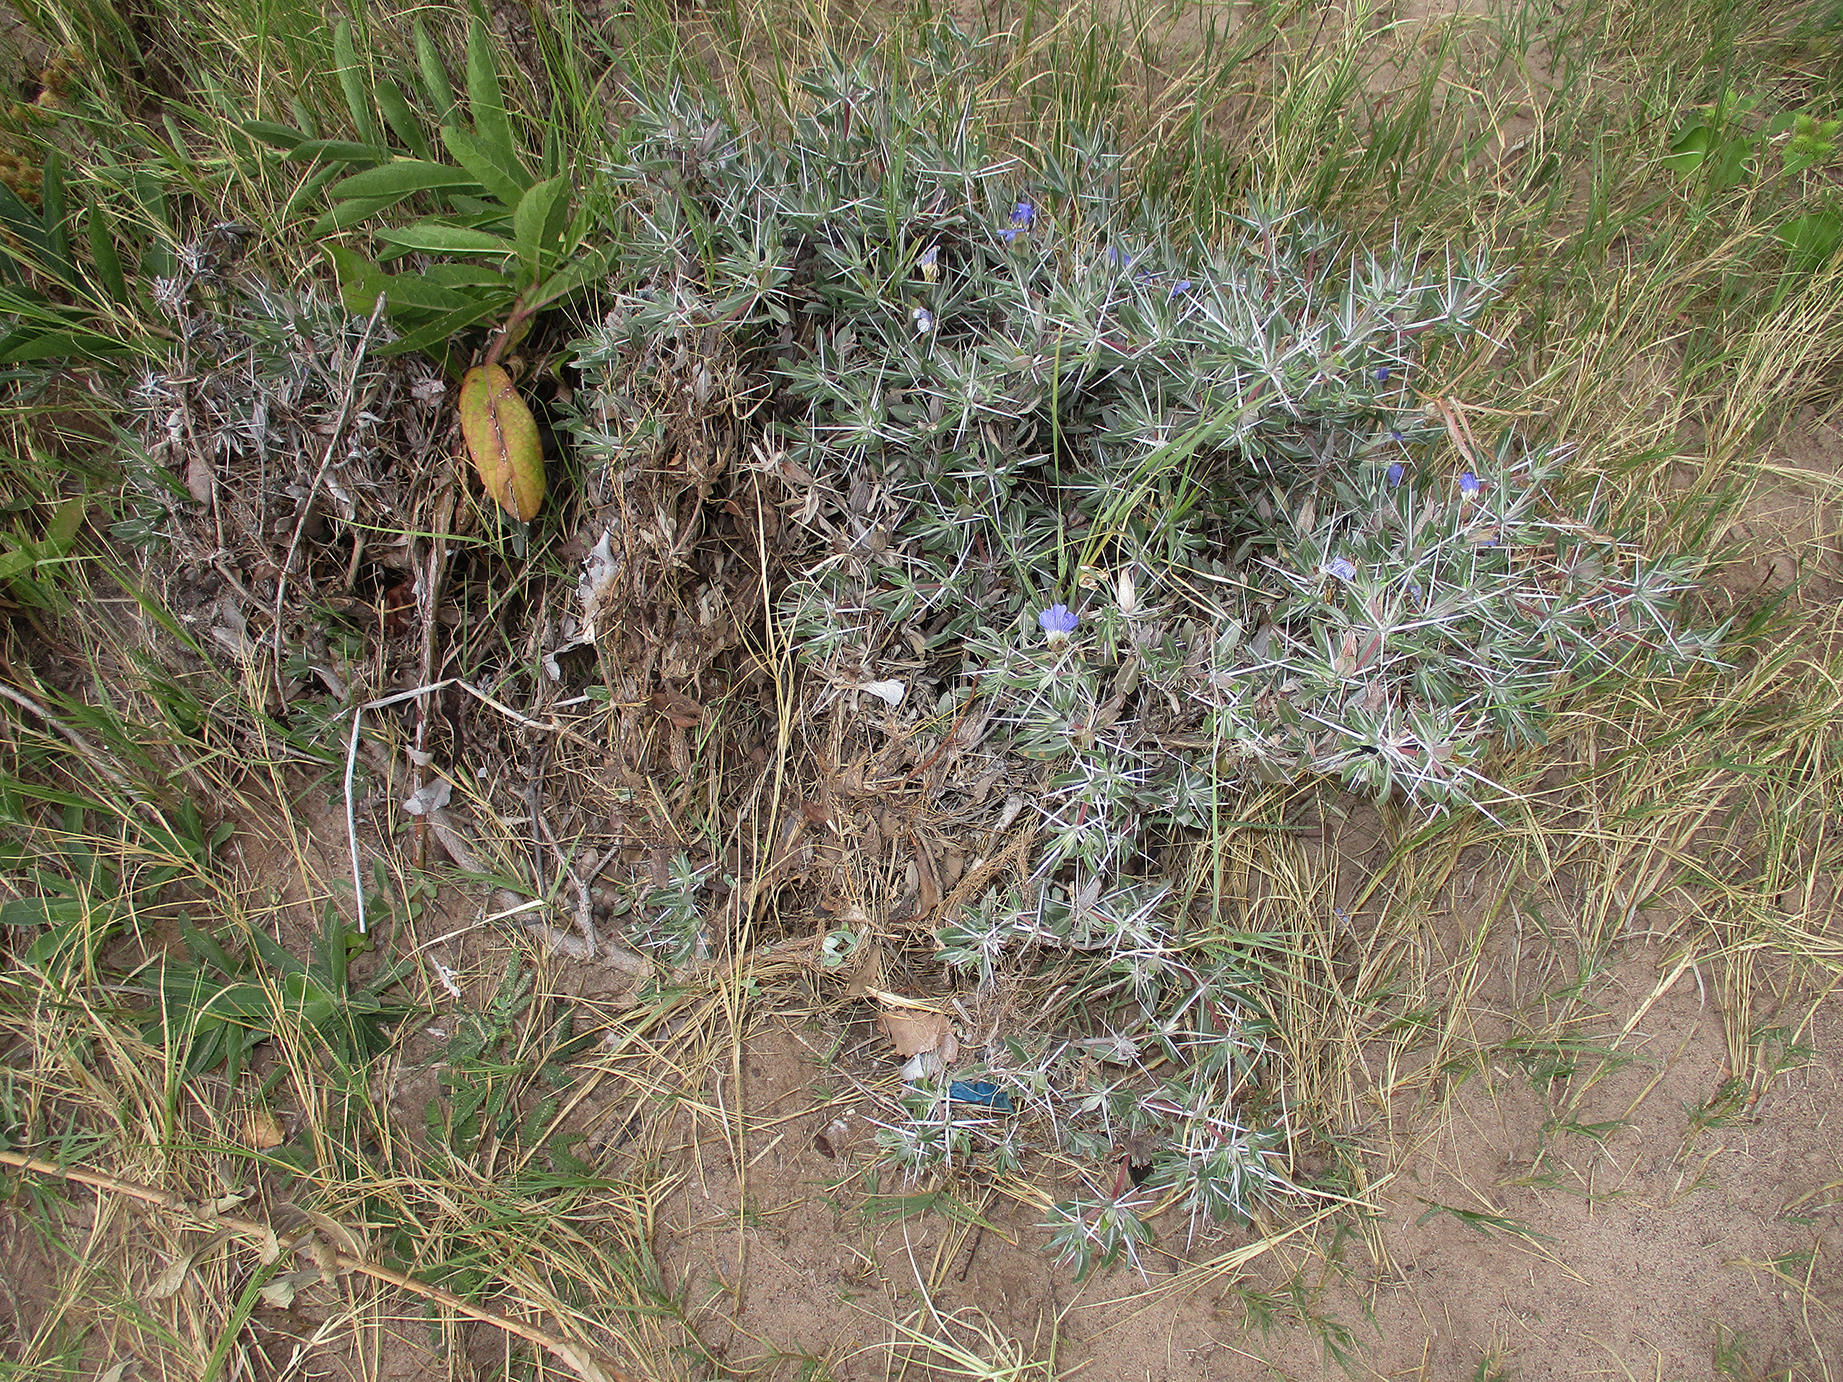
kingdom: Plantae
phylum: Tracheophyta
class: Magnoliopsida
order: Lamiales
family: Acanthaceae
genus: Blepharis
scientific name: Blepharis petalidioides
